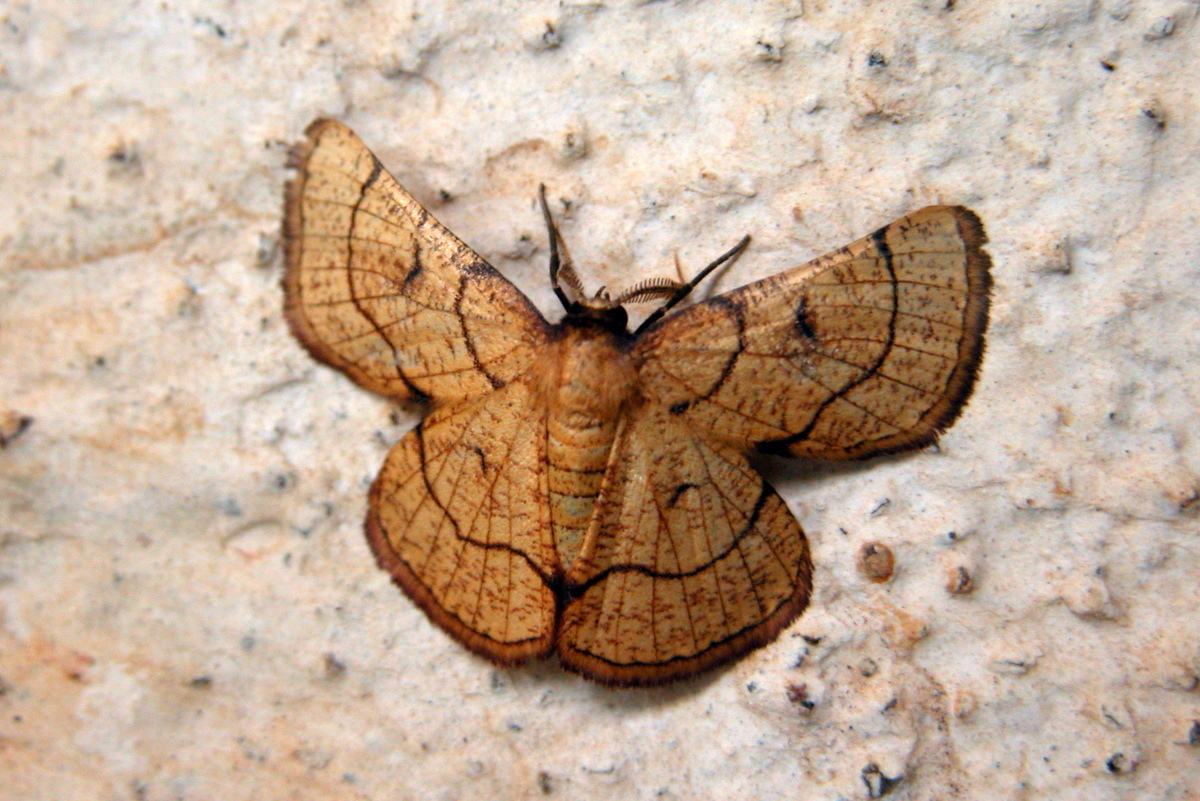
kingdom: Animalia
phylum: Arthropoda
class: Insecta
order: Lepidoptera
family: Geometridae
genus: Cacochloris
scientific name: Cacochloris uvidula
